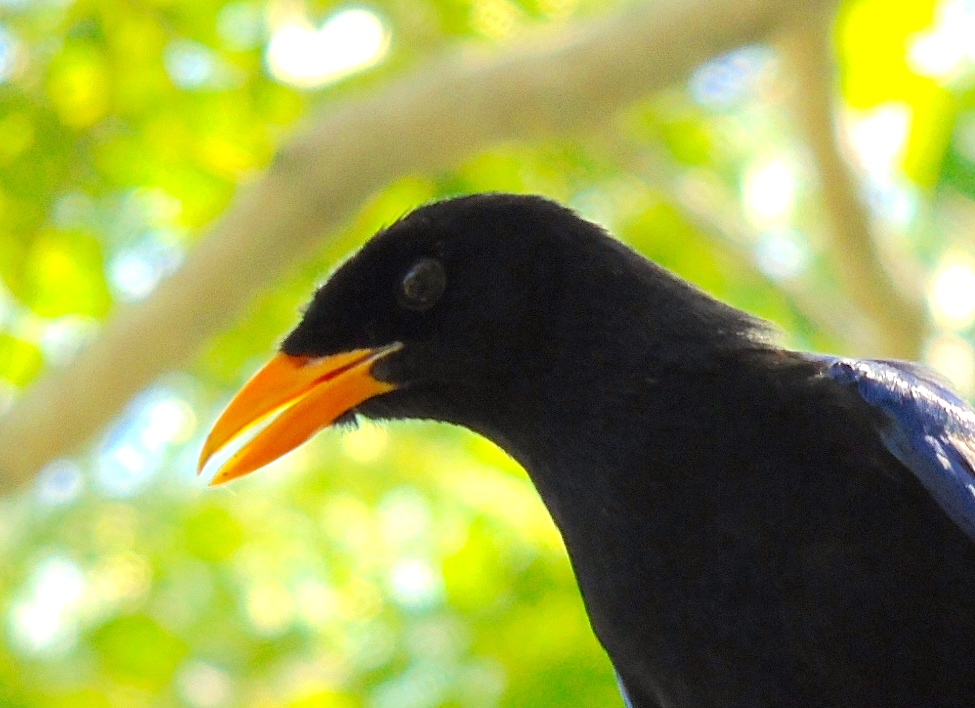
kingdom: Animalia
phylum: Chordata
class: Aves
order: Passeriformes
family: Corvidae
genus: Cyanocorax
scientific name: Cyanocorax beecheii
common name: Purplish-backed jay
